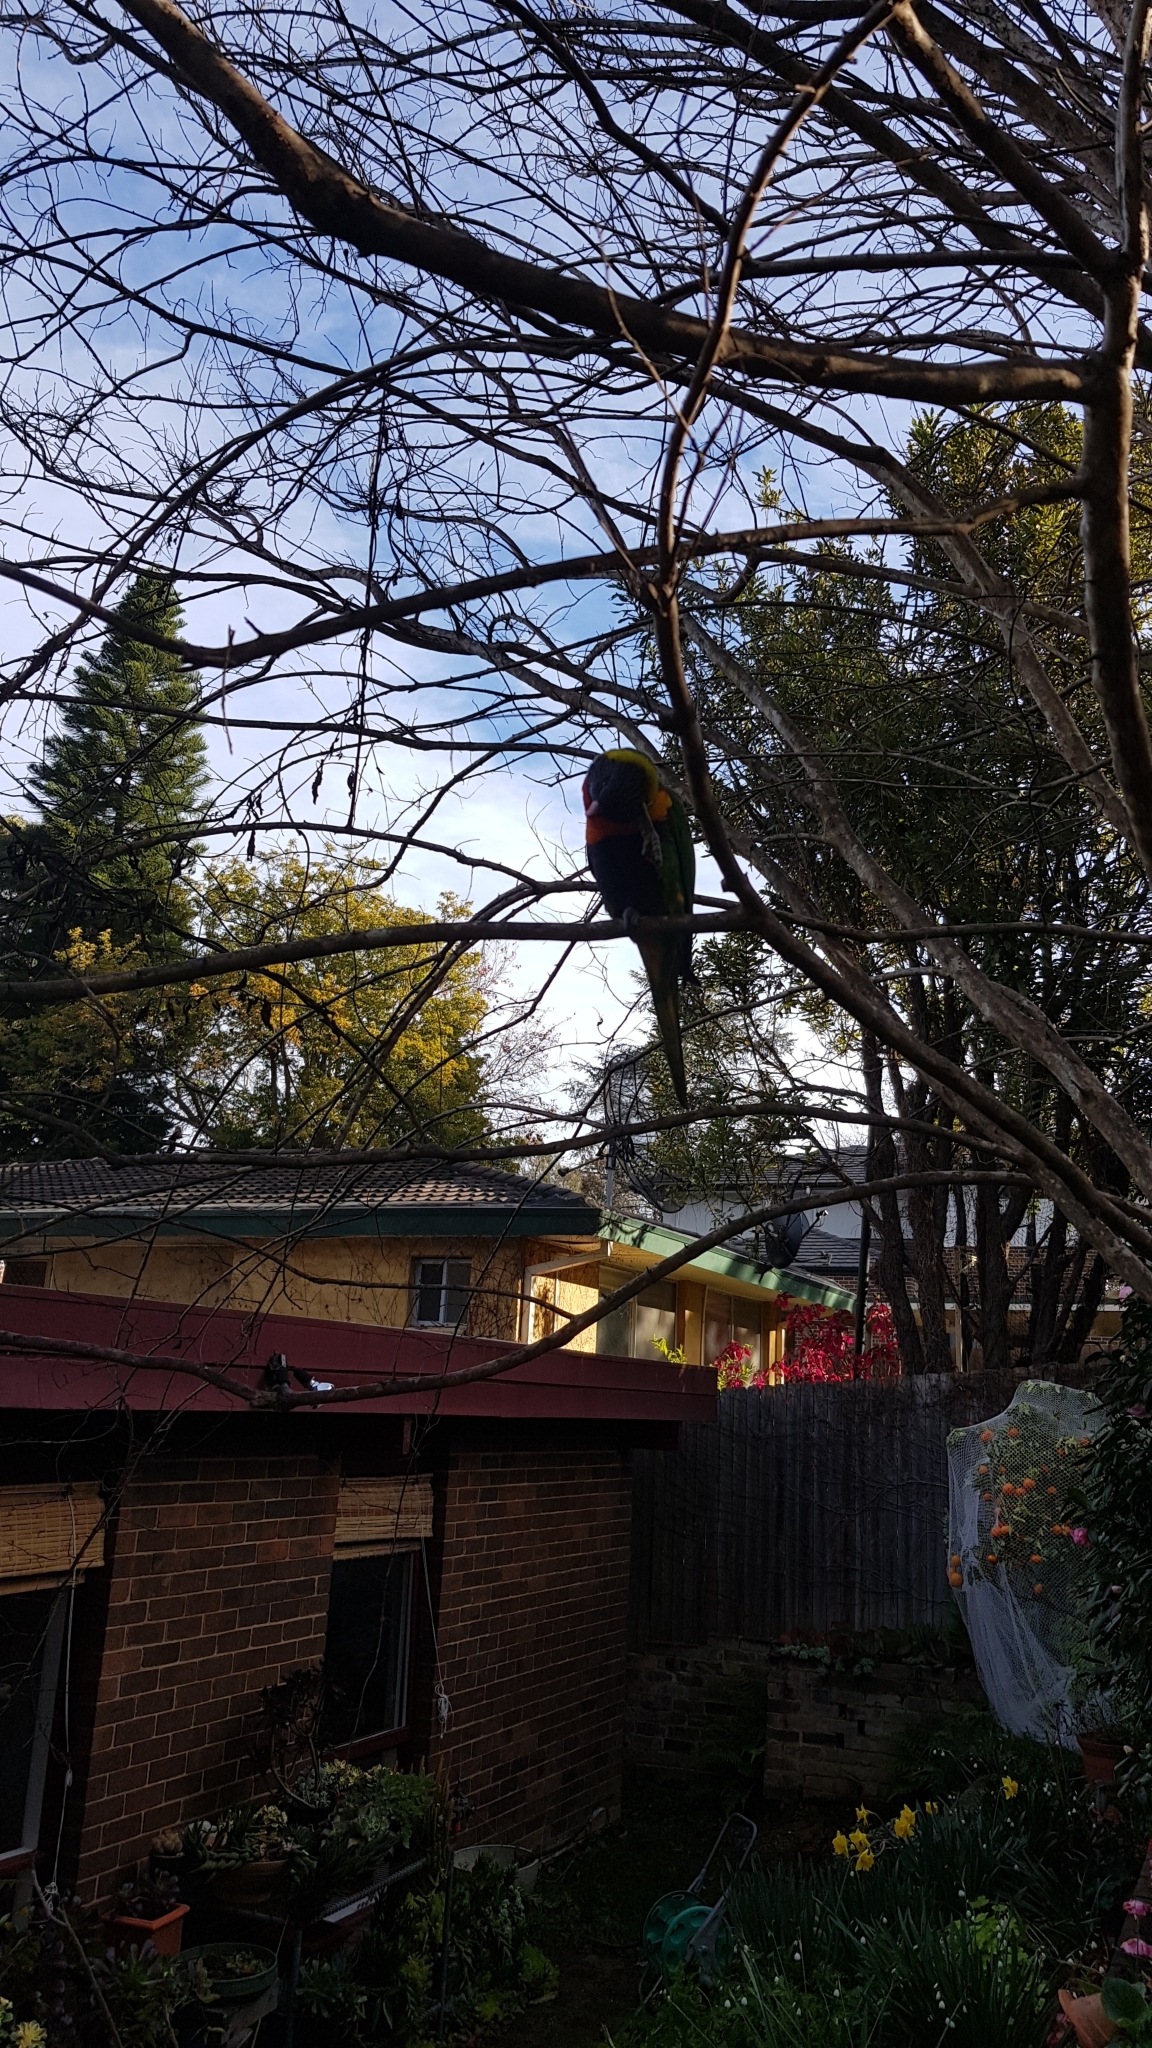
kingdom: Animalia
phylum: Chordata
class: Aves
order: Psittaciformes
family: Psittacidae
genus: Trichoglossus
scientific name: Trichoglossus haematodus
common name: Coconut lorikeet
